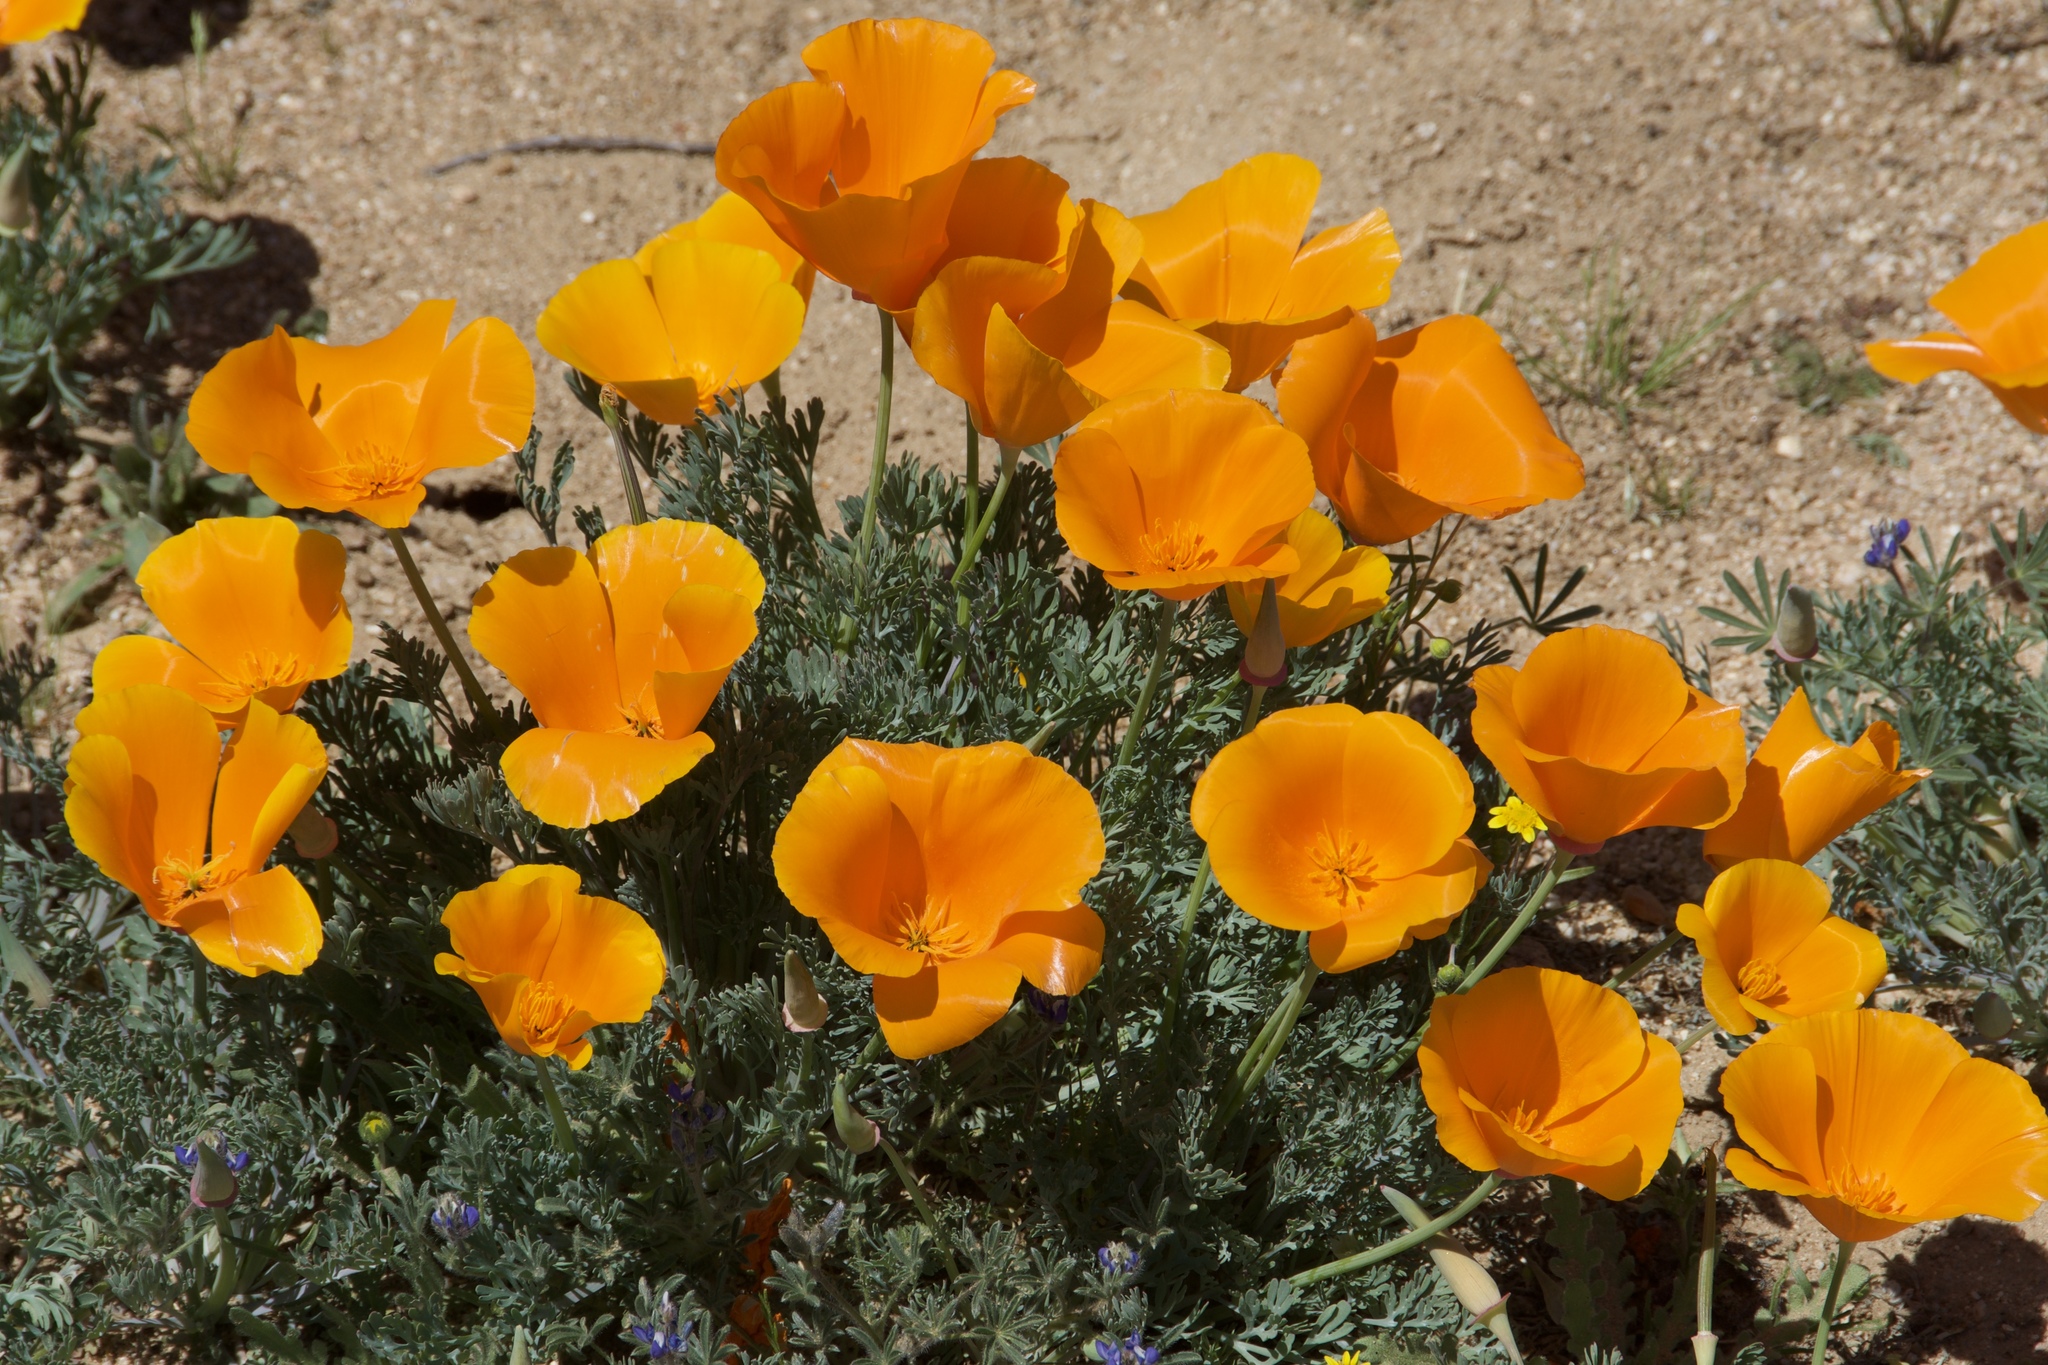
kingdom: Plantae
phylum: Tracheophyta
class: Magnoliopsida
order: Ranunculales
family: Papaveraceae
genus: Eschscholzia
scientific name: Eschscholzia californica
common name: California poppy
